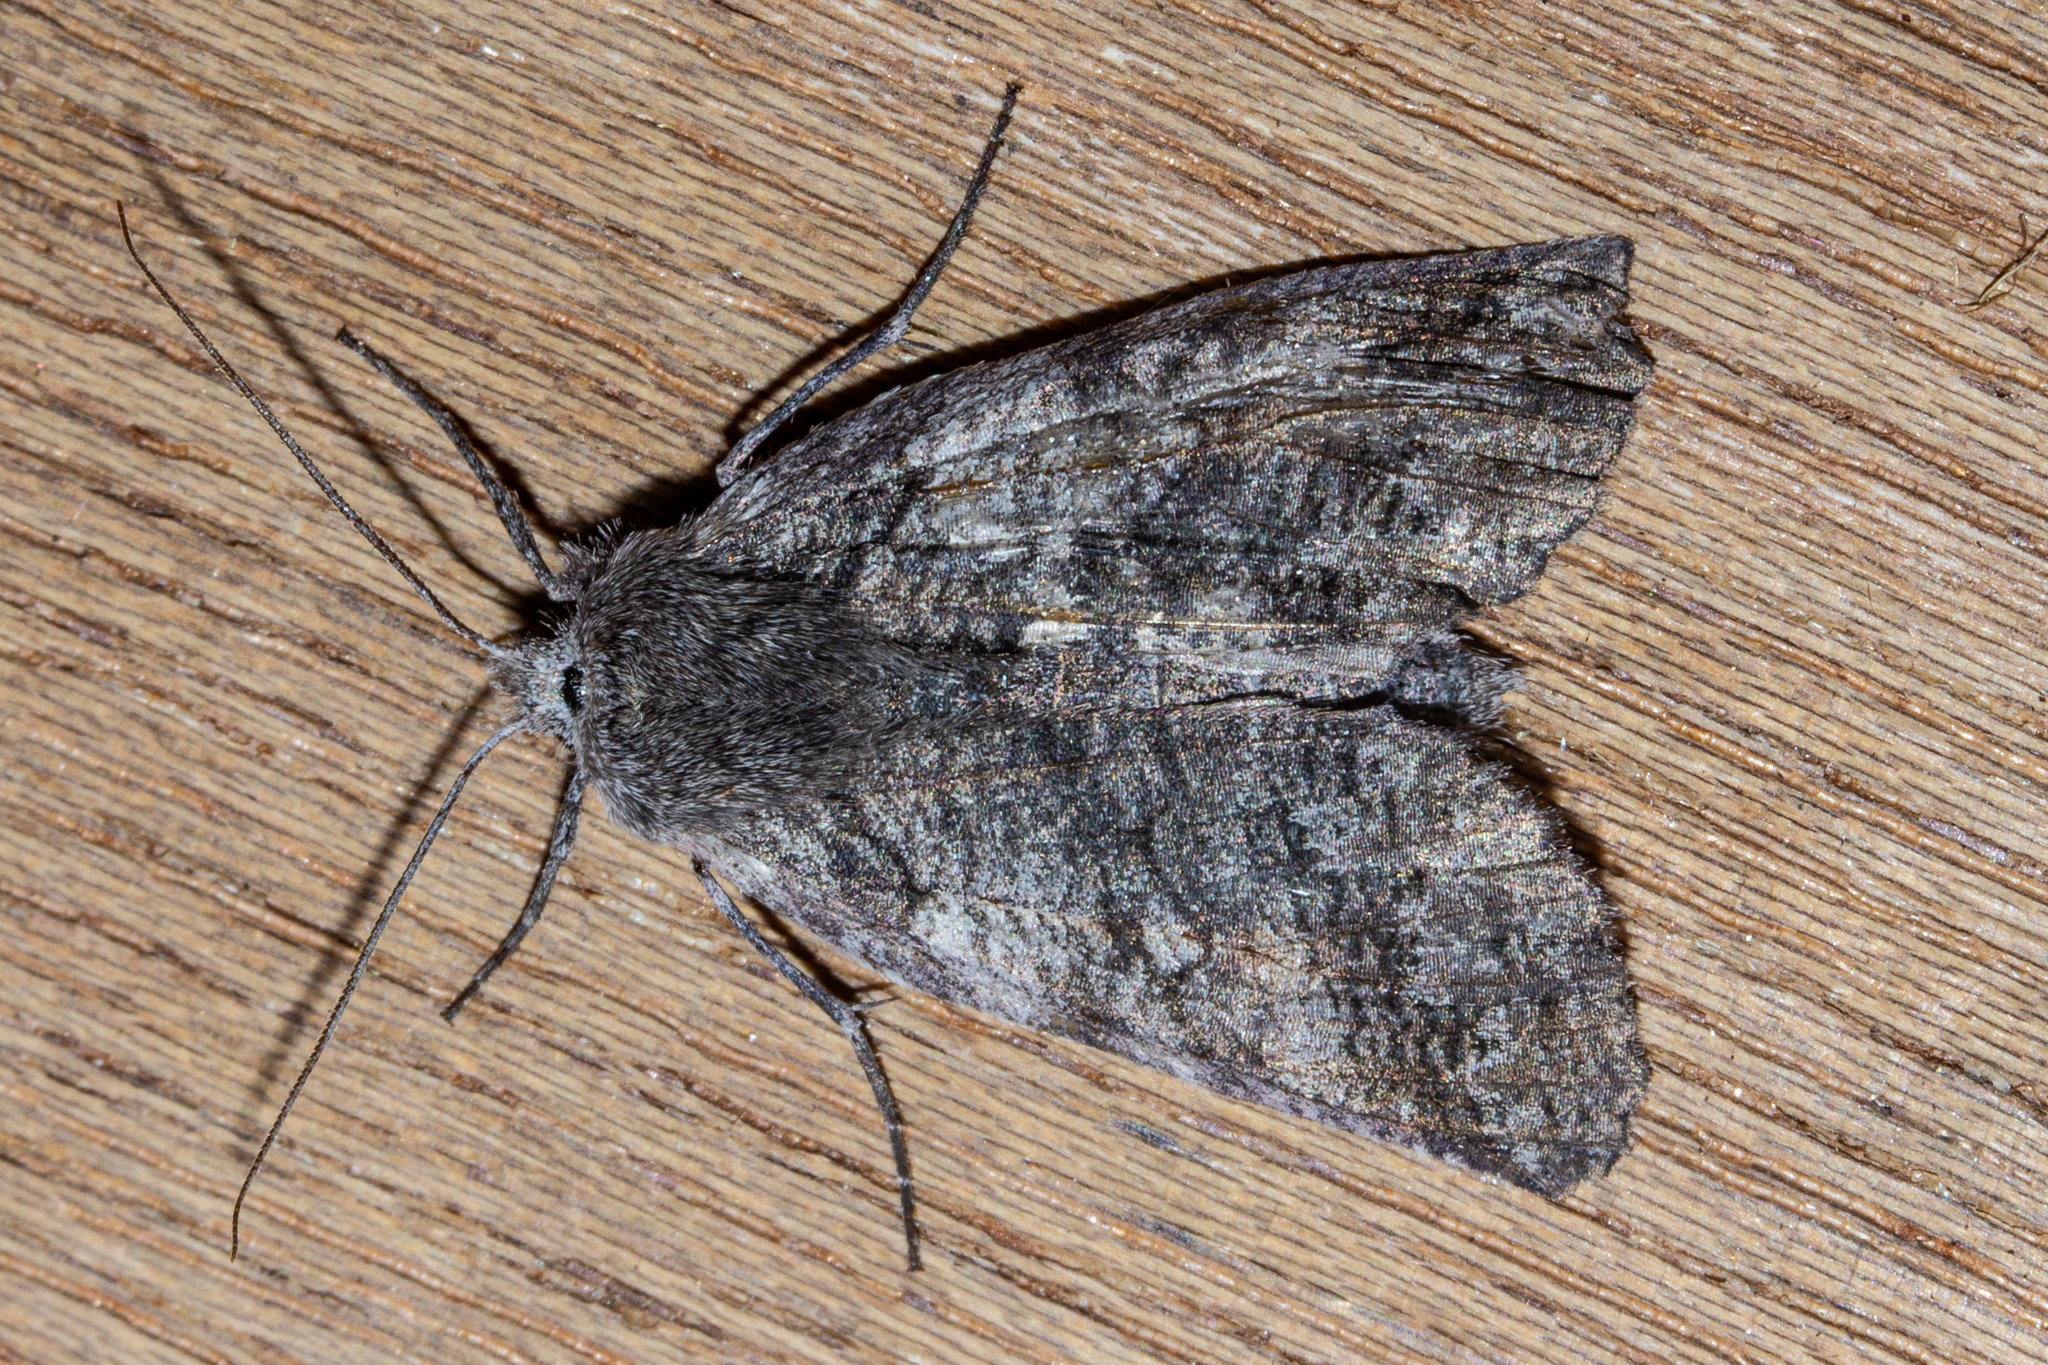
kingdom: Animalia
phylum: Arthropoda
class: Insecta
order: Lepidoptera
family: Geometridae
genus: Declana
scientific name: Declana
